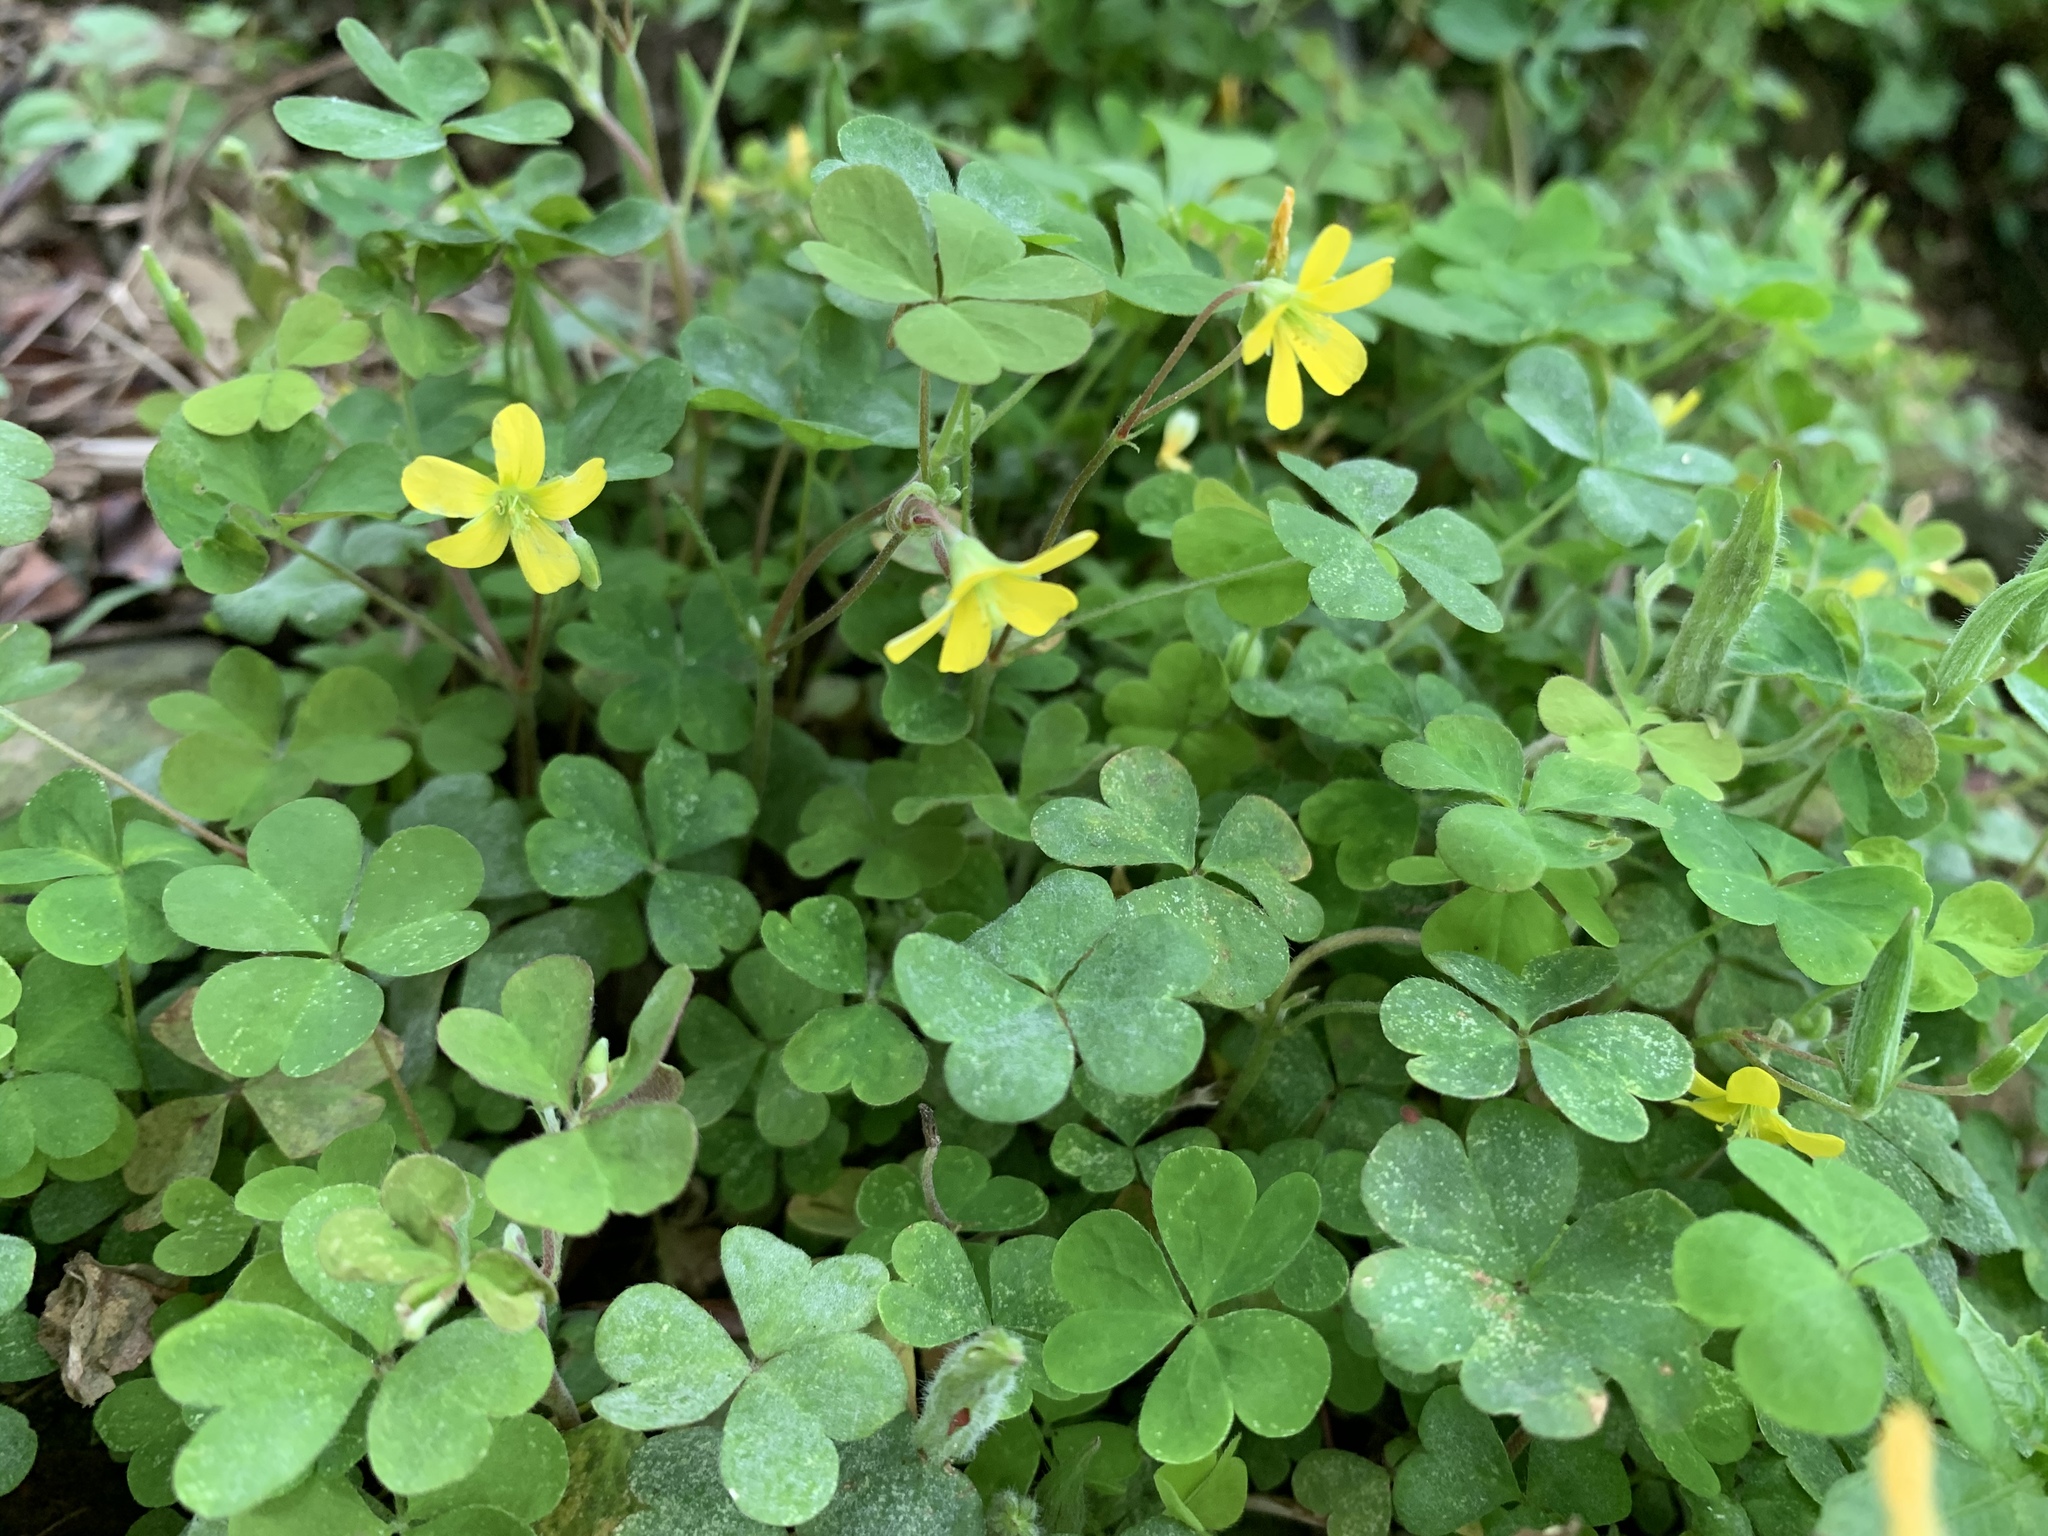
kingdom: Plantae
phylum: Tracheophyta
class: Magnoliopsida
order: Oxalidales
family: Oxalidaceae
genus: Oxalis
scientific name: Oxalis corniculata
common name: Procumbent yellow-sorrel
